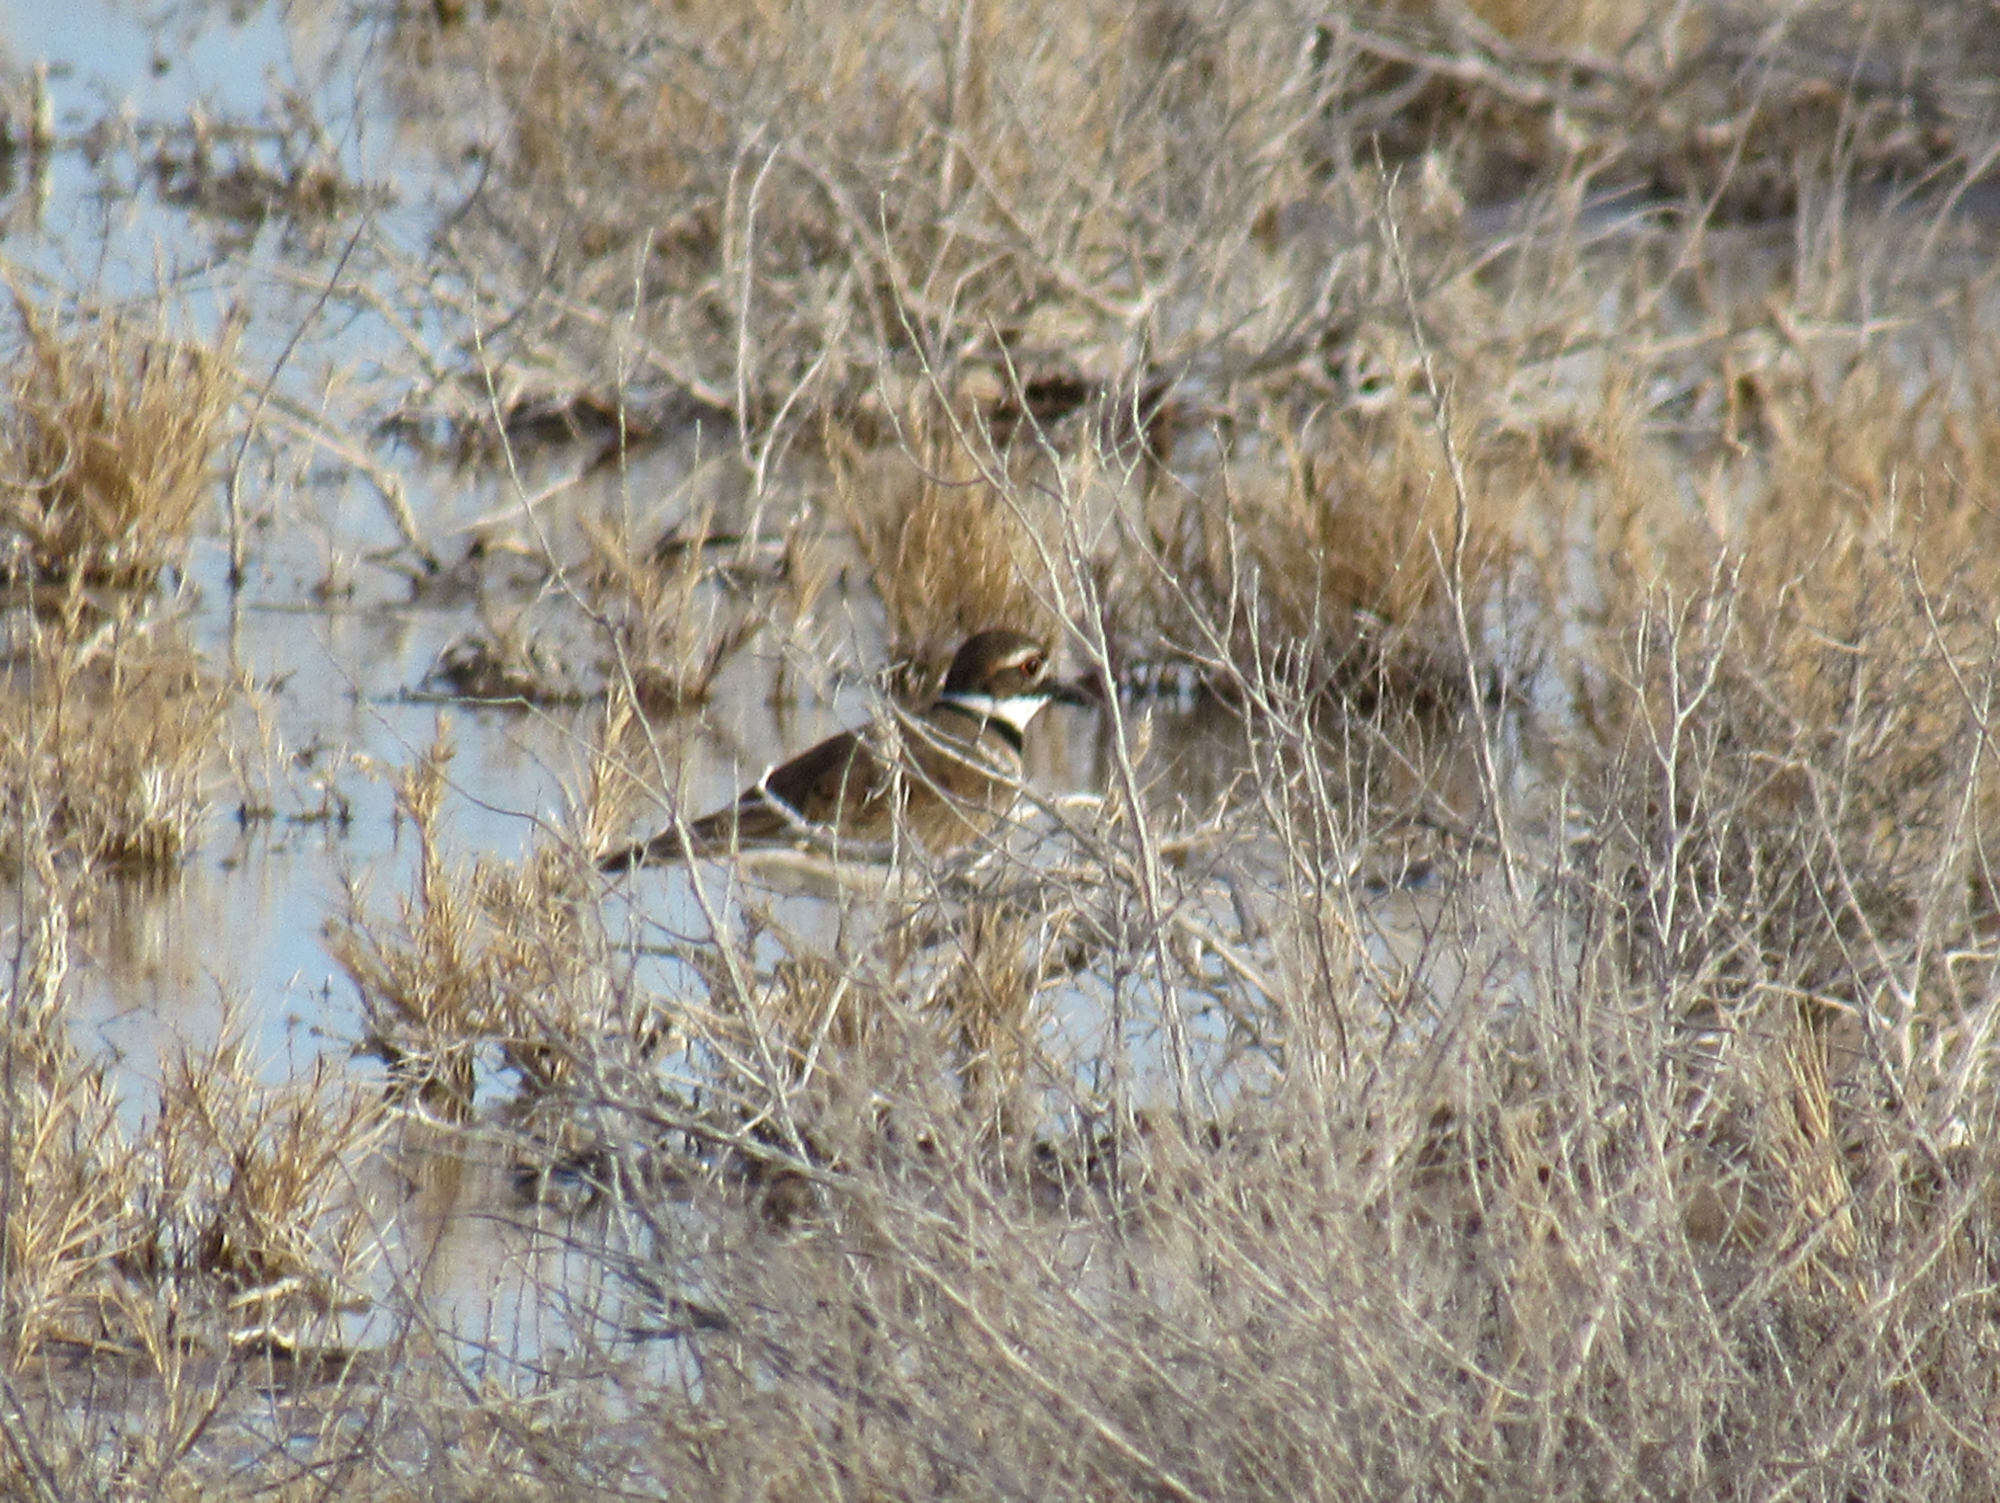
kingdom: Animalia
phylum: Chordata
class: Aves
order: Charadriiformes
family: Charadriidae
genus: Charadrius
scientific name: Charadrius vociferus
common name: Killdeer
